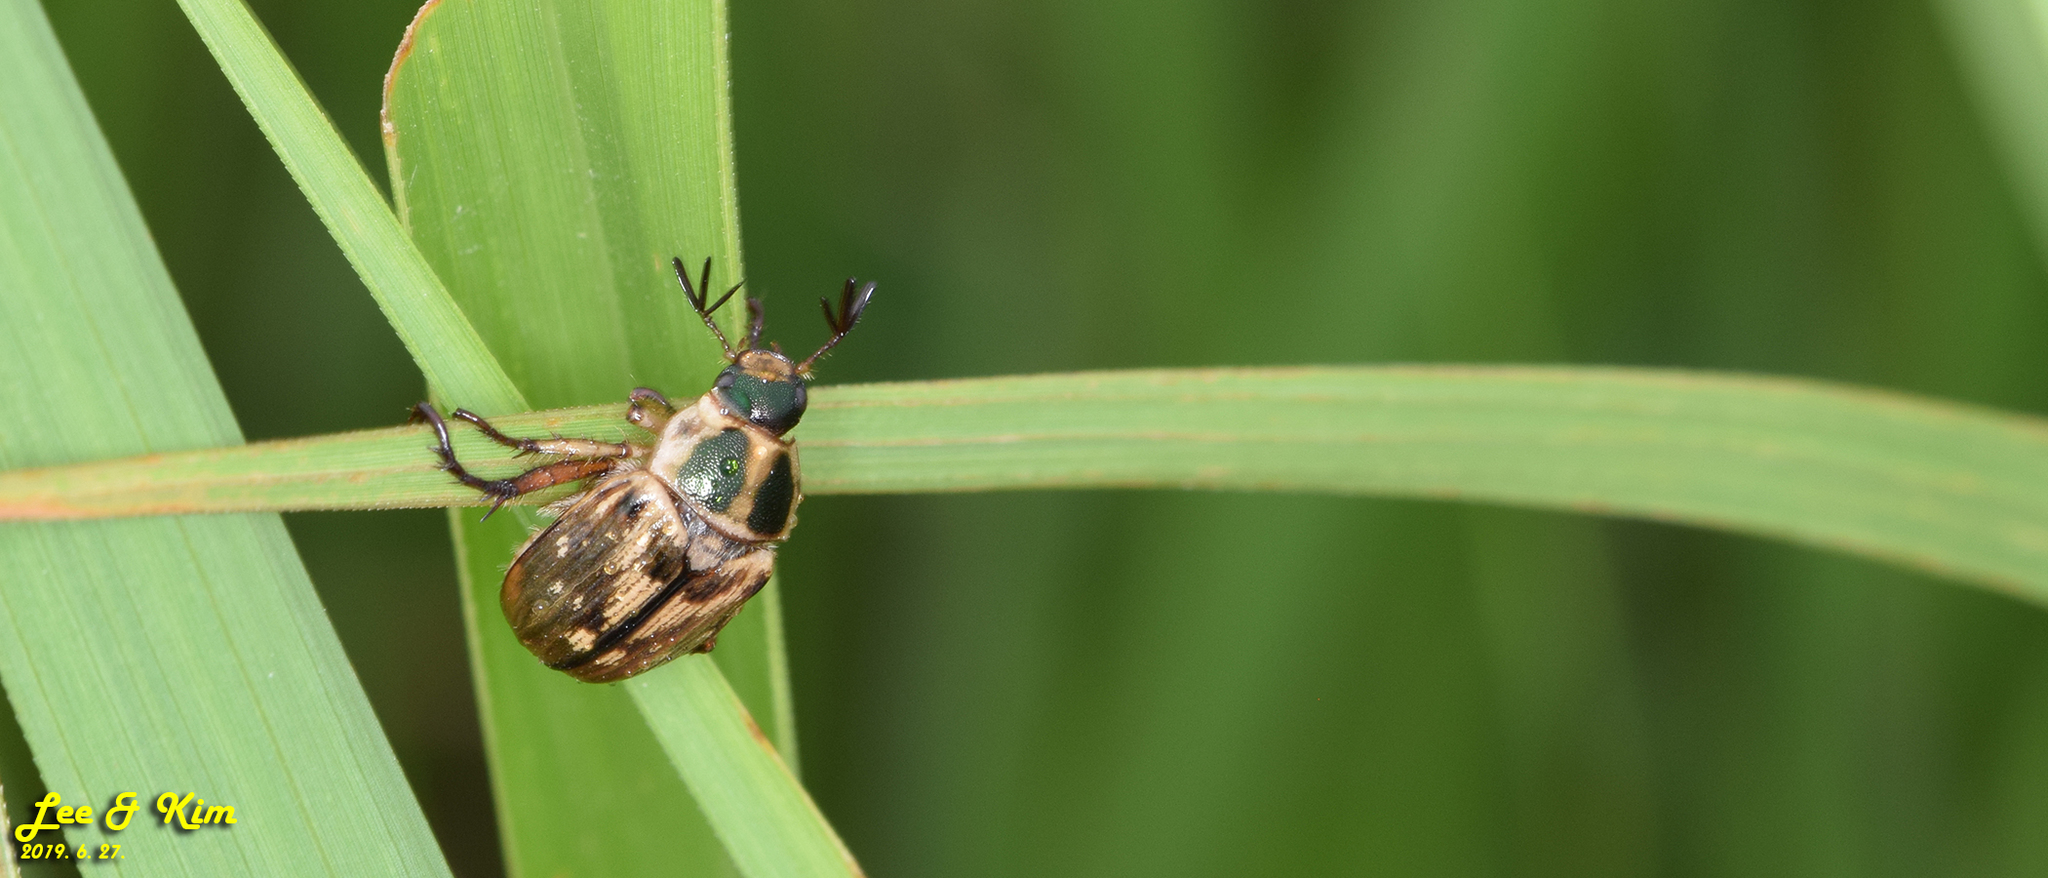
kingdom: Animalia
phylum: Arthropoda
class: Insecta
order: Coleoptera
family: Scarabaeidae
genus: Exomala
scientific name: Exomala orientalis
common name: Oriental beetle
